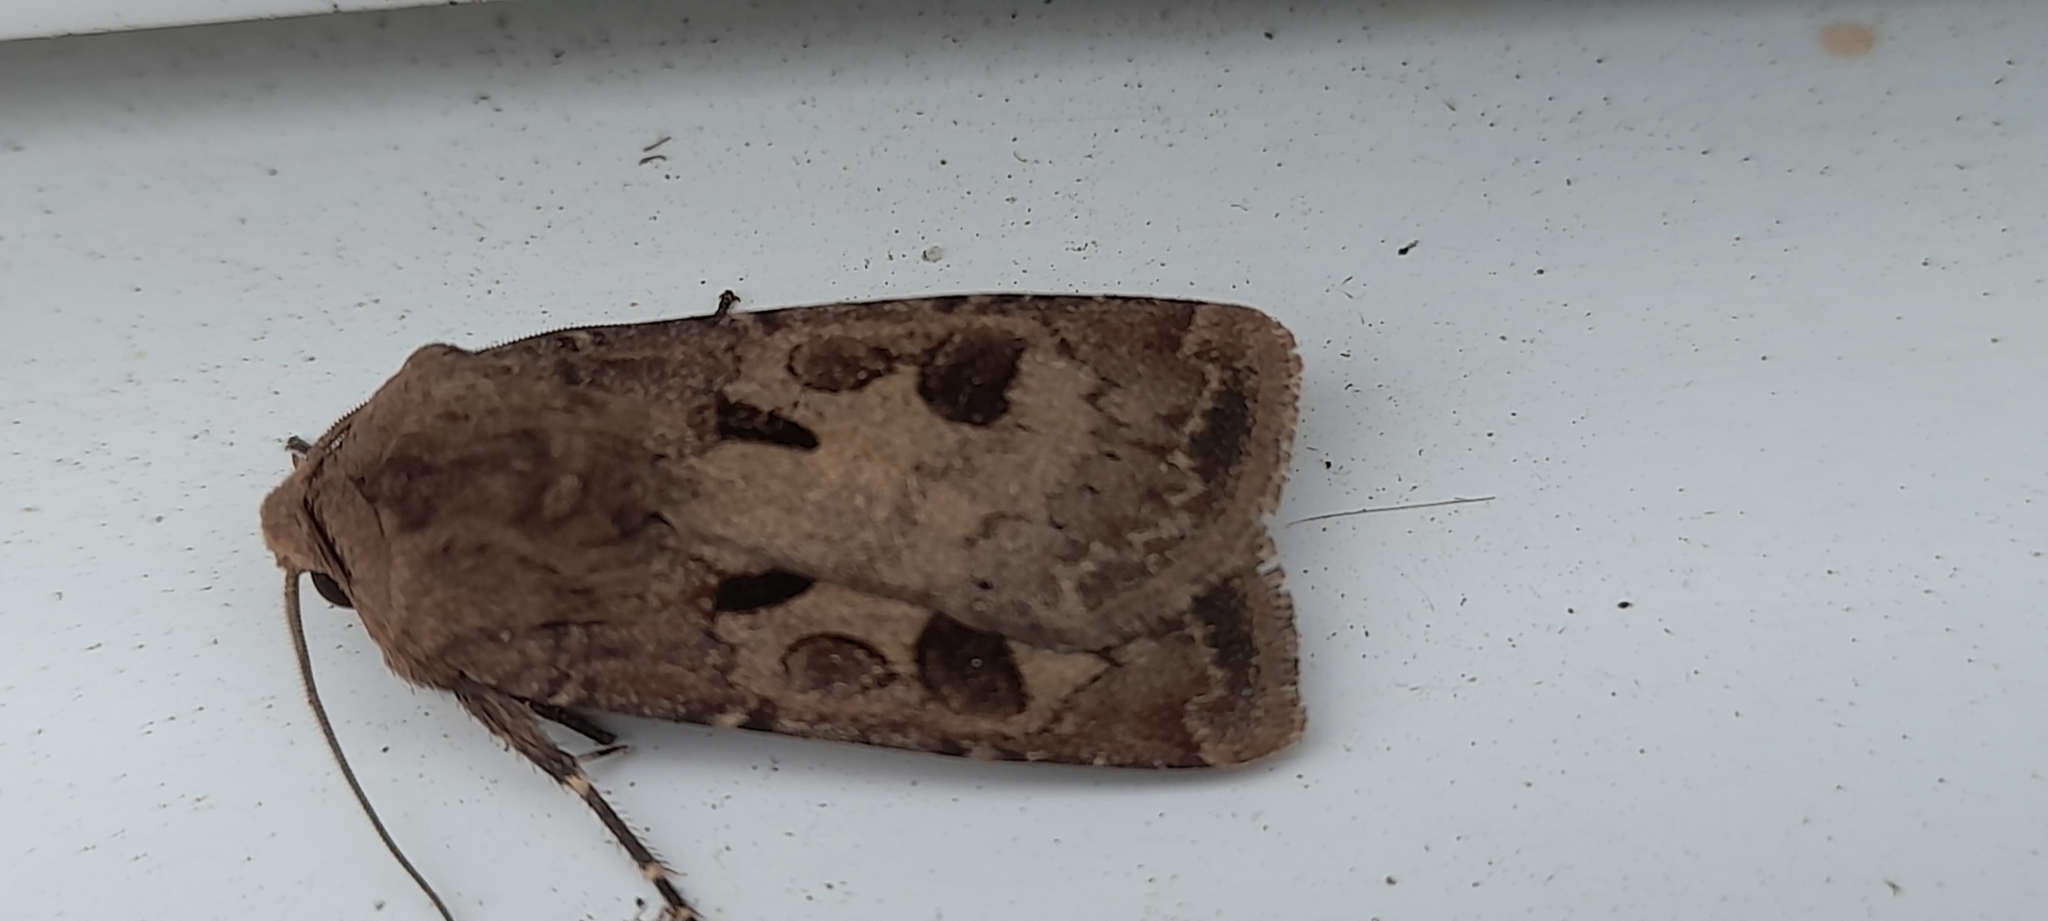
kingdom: Animalia
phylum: Arthropoda
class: Insecta
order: Lepidoptera
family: Noctuidae
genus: Agrotis
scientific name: Agrotis exclamationis
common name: Heart and dart
